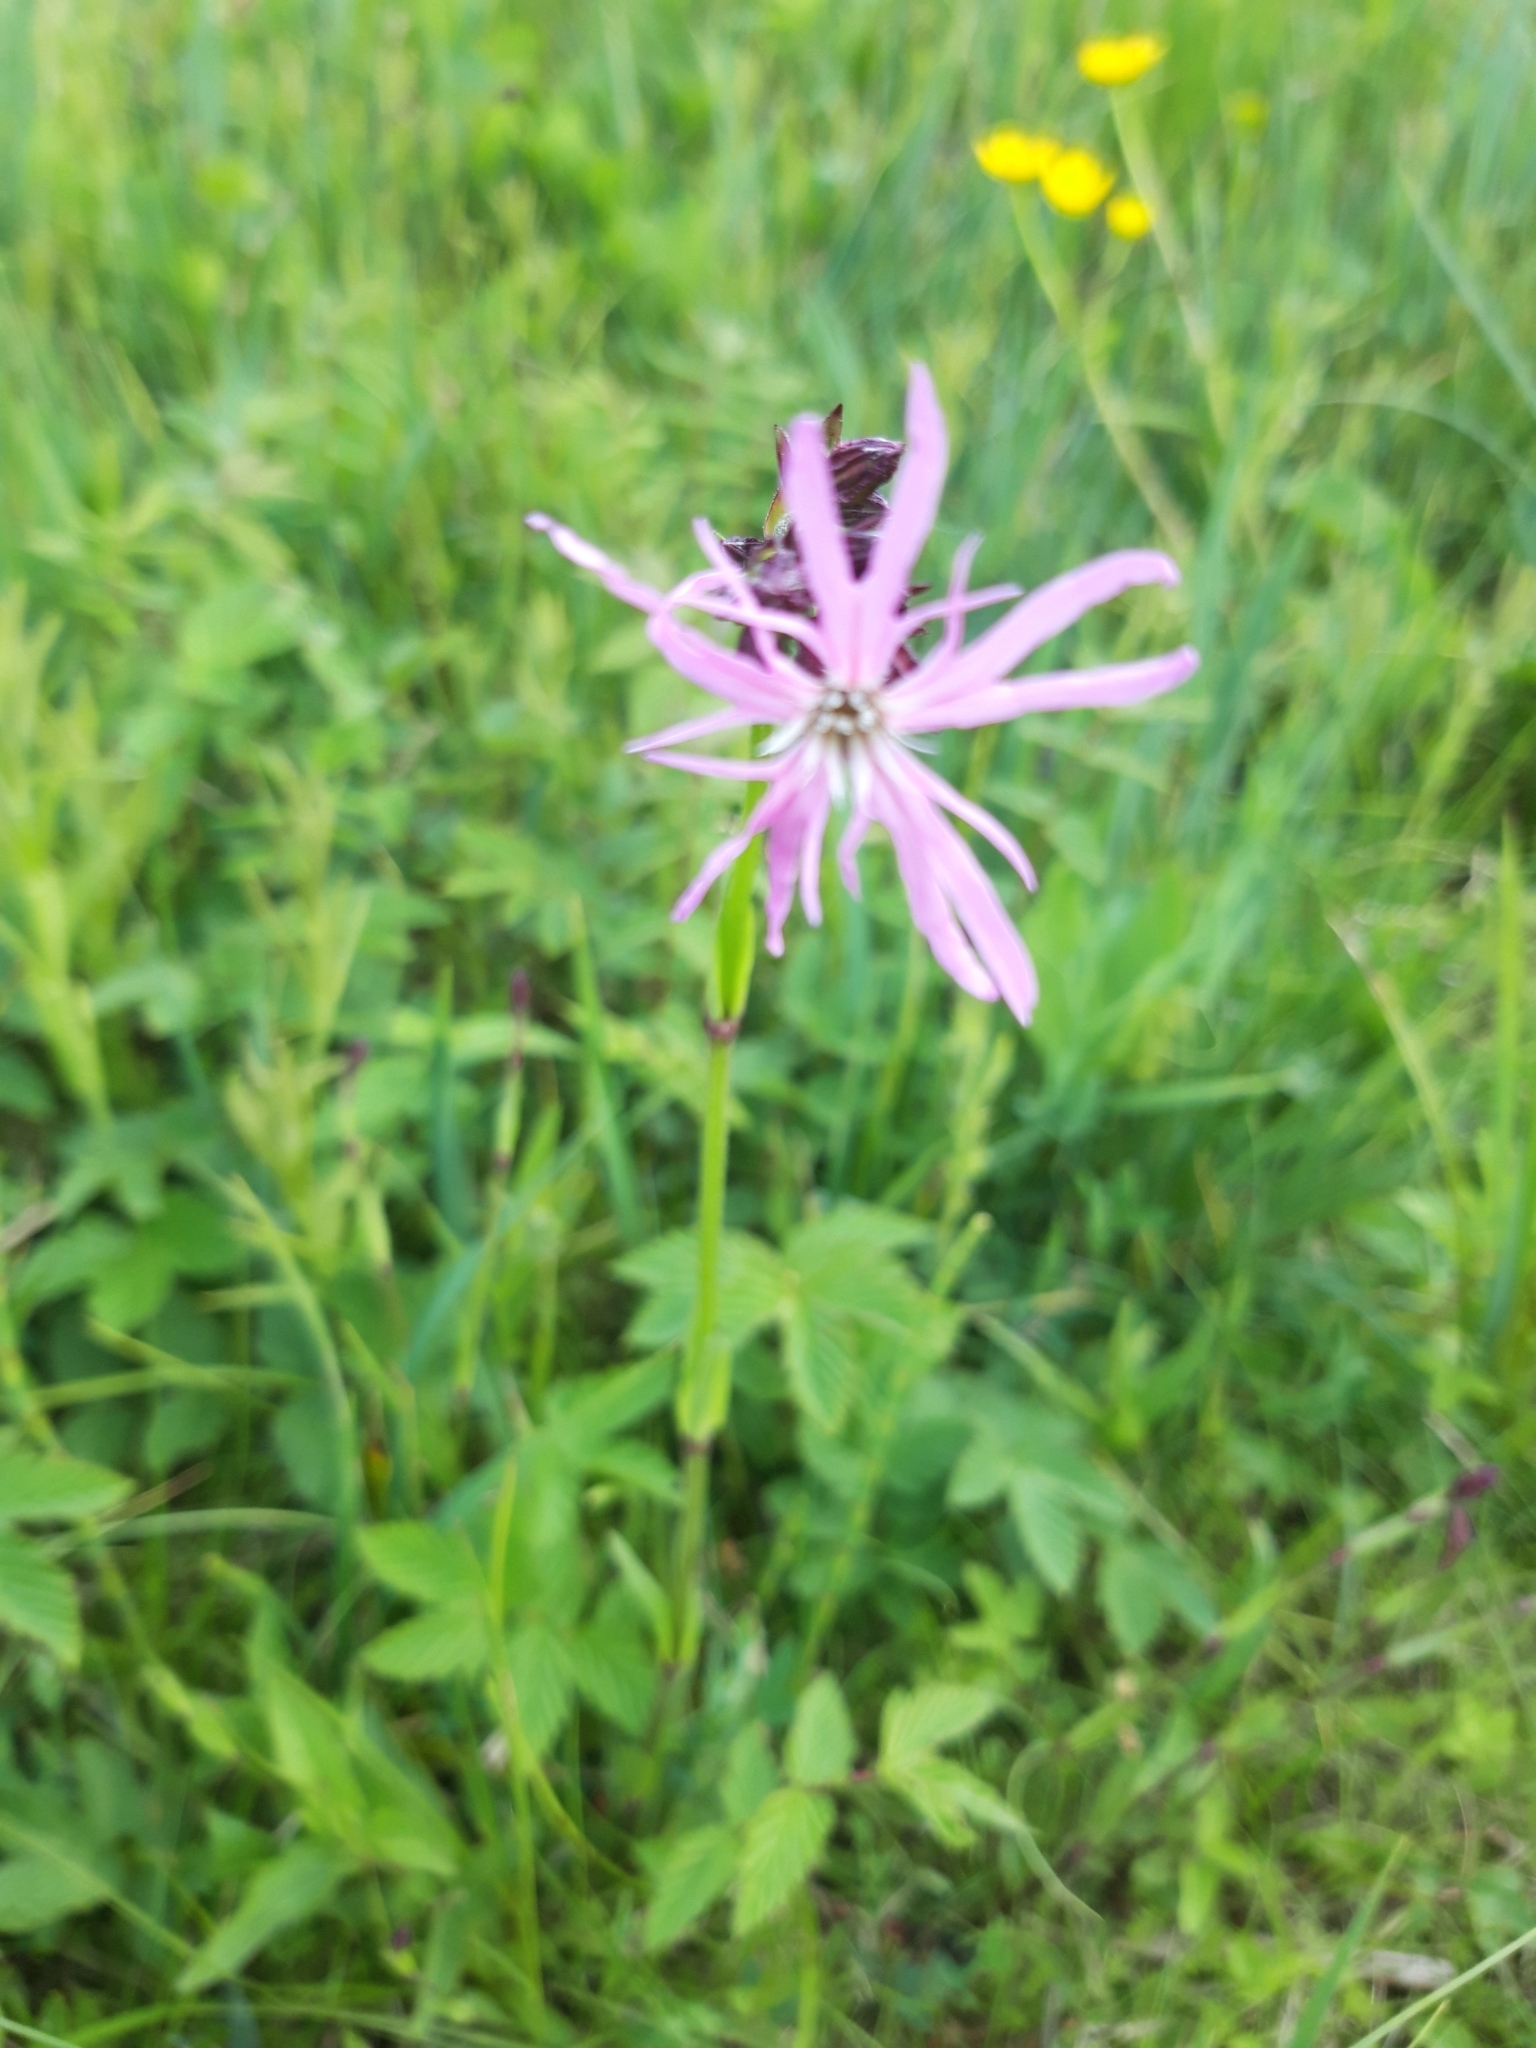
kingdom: Plantae
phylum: Tracheophyta
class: Magnoliopsida
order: Caryophyllales
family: Caryophyllaceae
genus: Silene
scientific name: Silene flos-cuculi
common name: Ragged-robin
